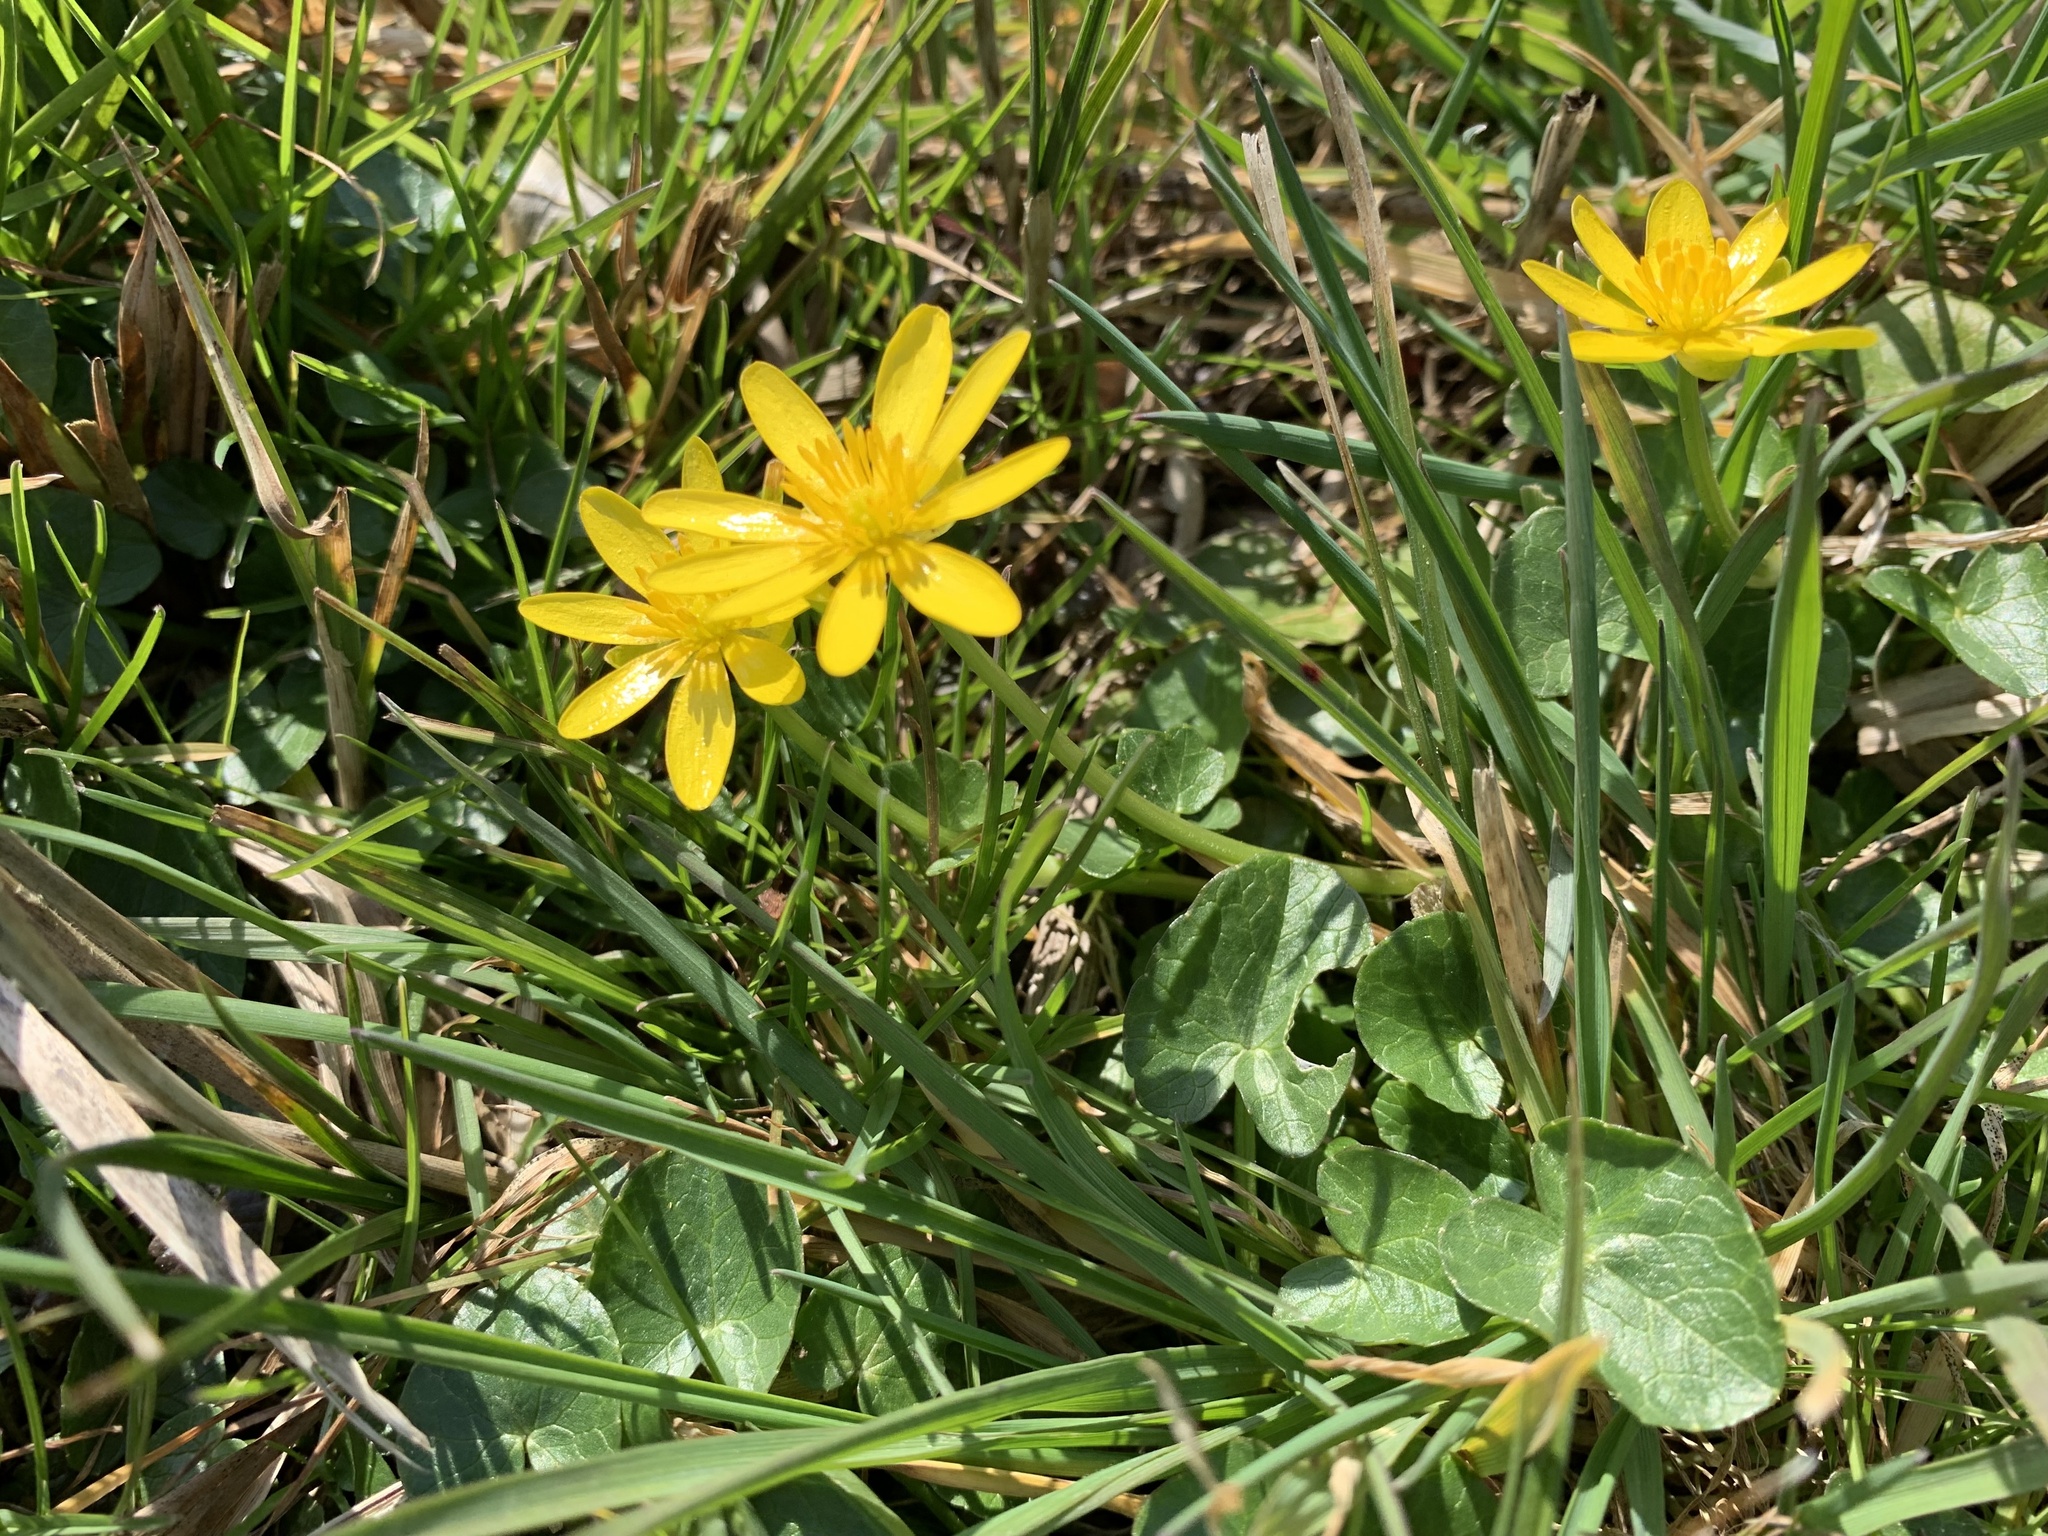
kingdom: Plantae
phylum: Tracheophyta
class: Magnoliopsida
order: Ranunculales
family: Ranunculaceae
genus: Ficaria
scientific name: Ficaria verna
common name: Lesser celandine
